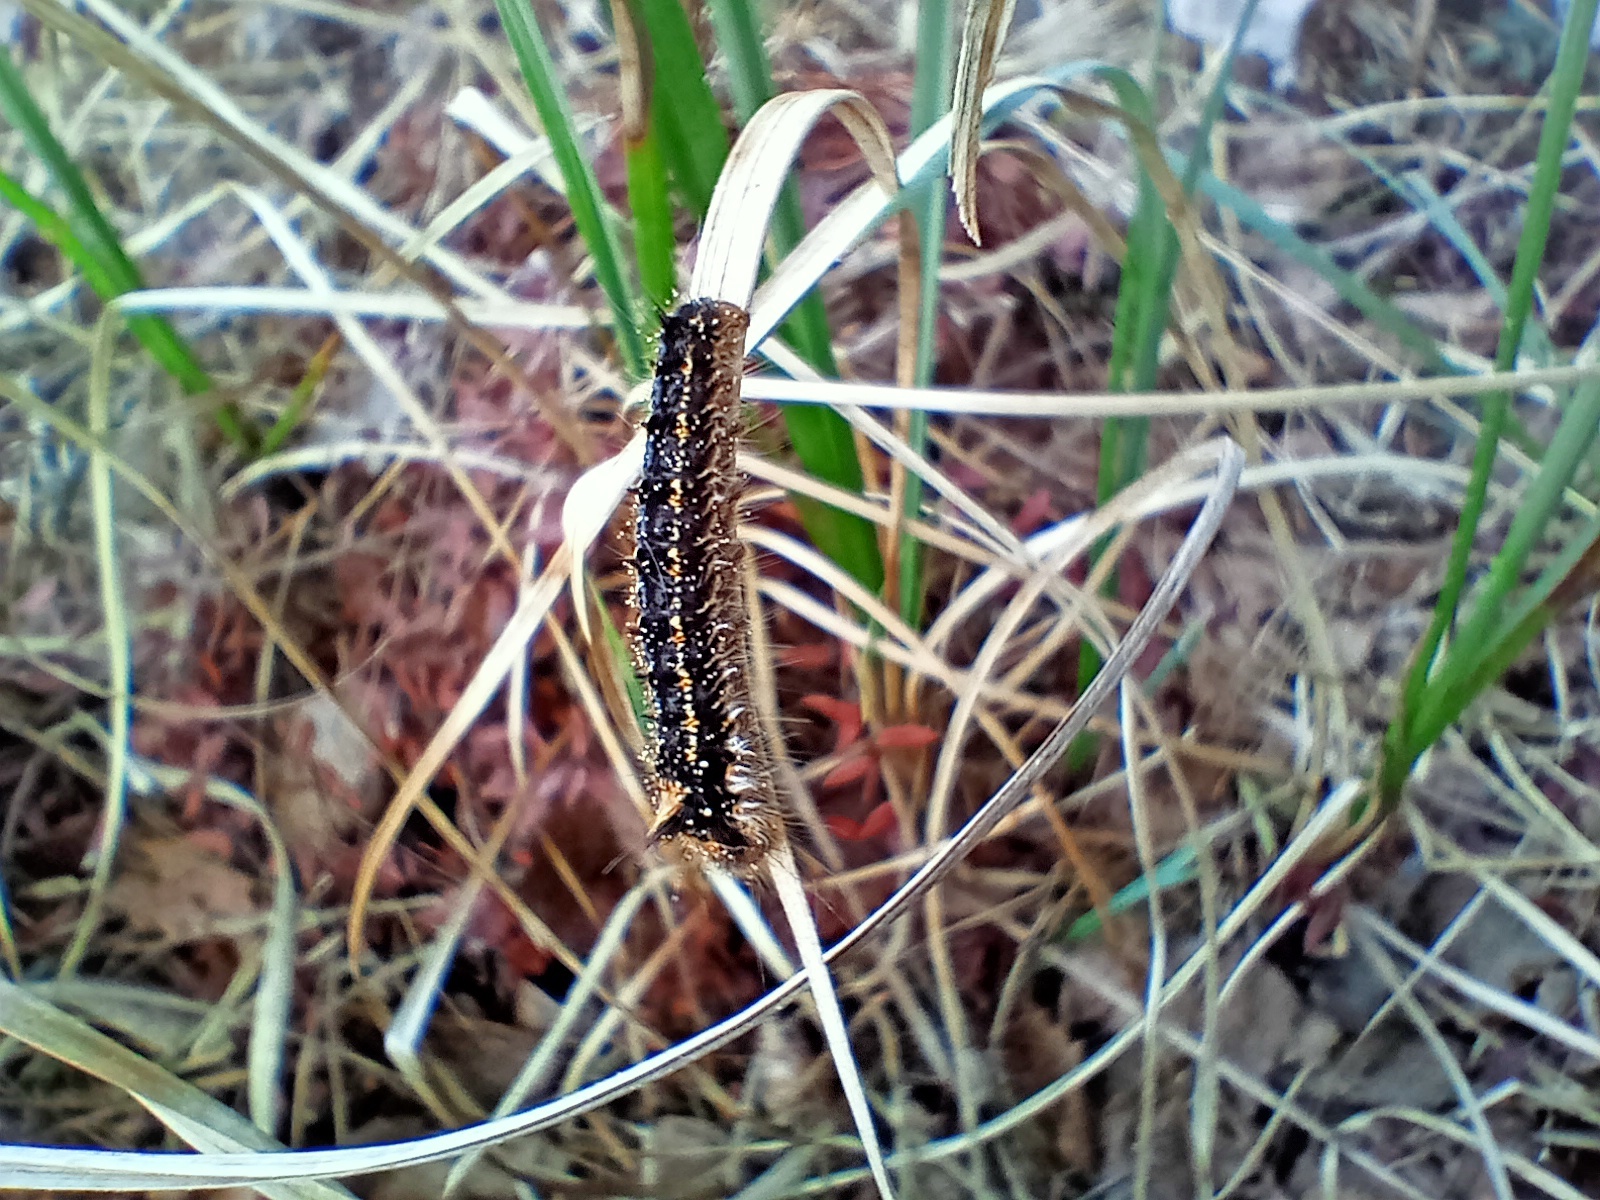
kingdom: Animalia
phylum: Arthropoda
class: Insecta
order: Lepidoptera
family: Lasiocampidae
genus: Euthrix
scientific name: Euthrix potatoria
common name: Drinker
